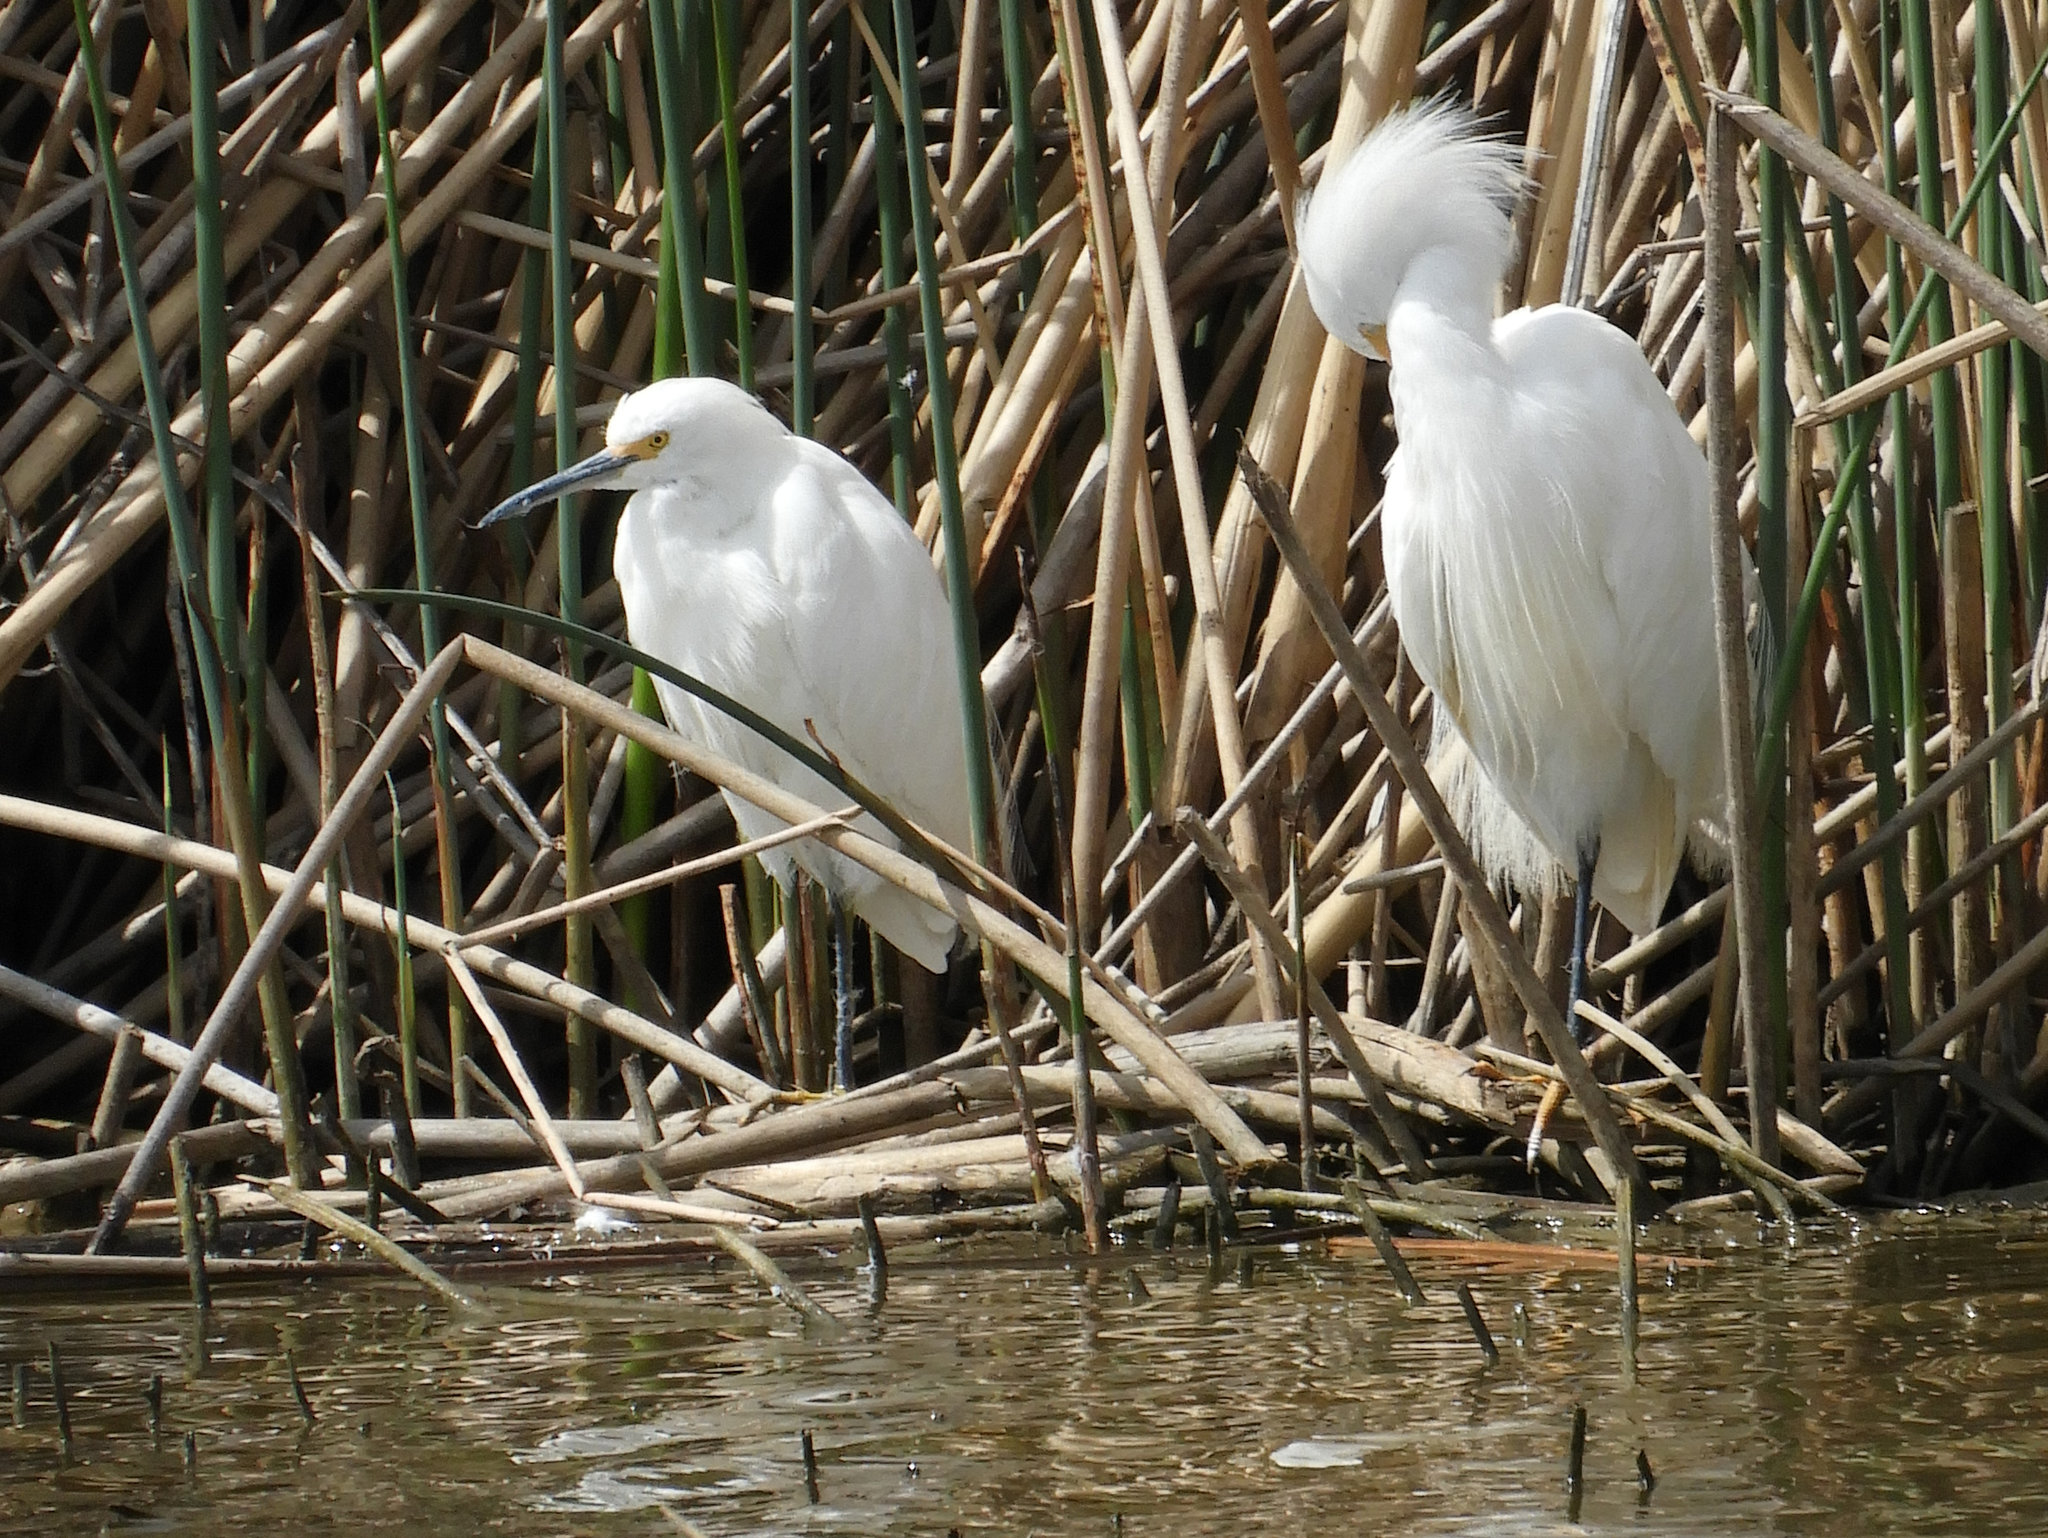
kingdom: Animalia
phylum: Chordata
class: Aves
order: Pelecaniformes
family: Ardeidae
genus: Egretta
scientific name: Egretta thula
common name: Snowy egret
